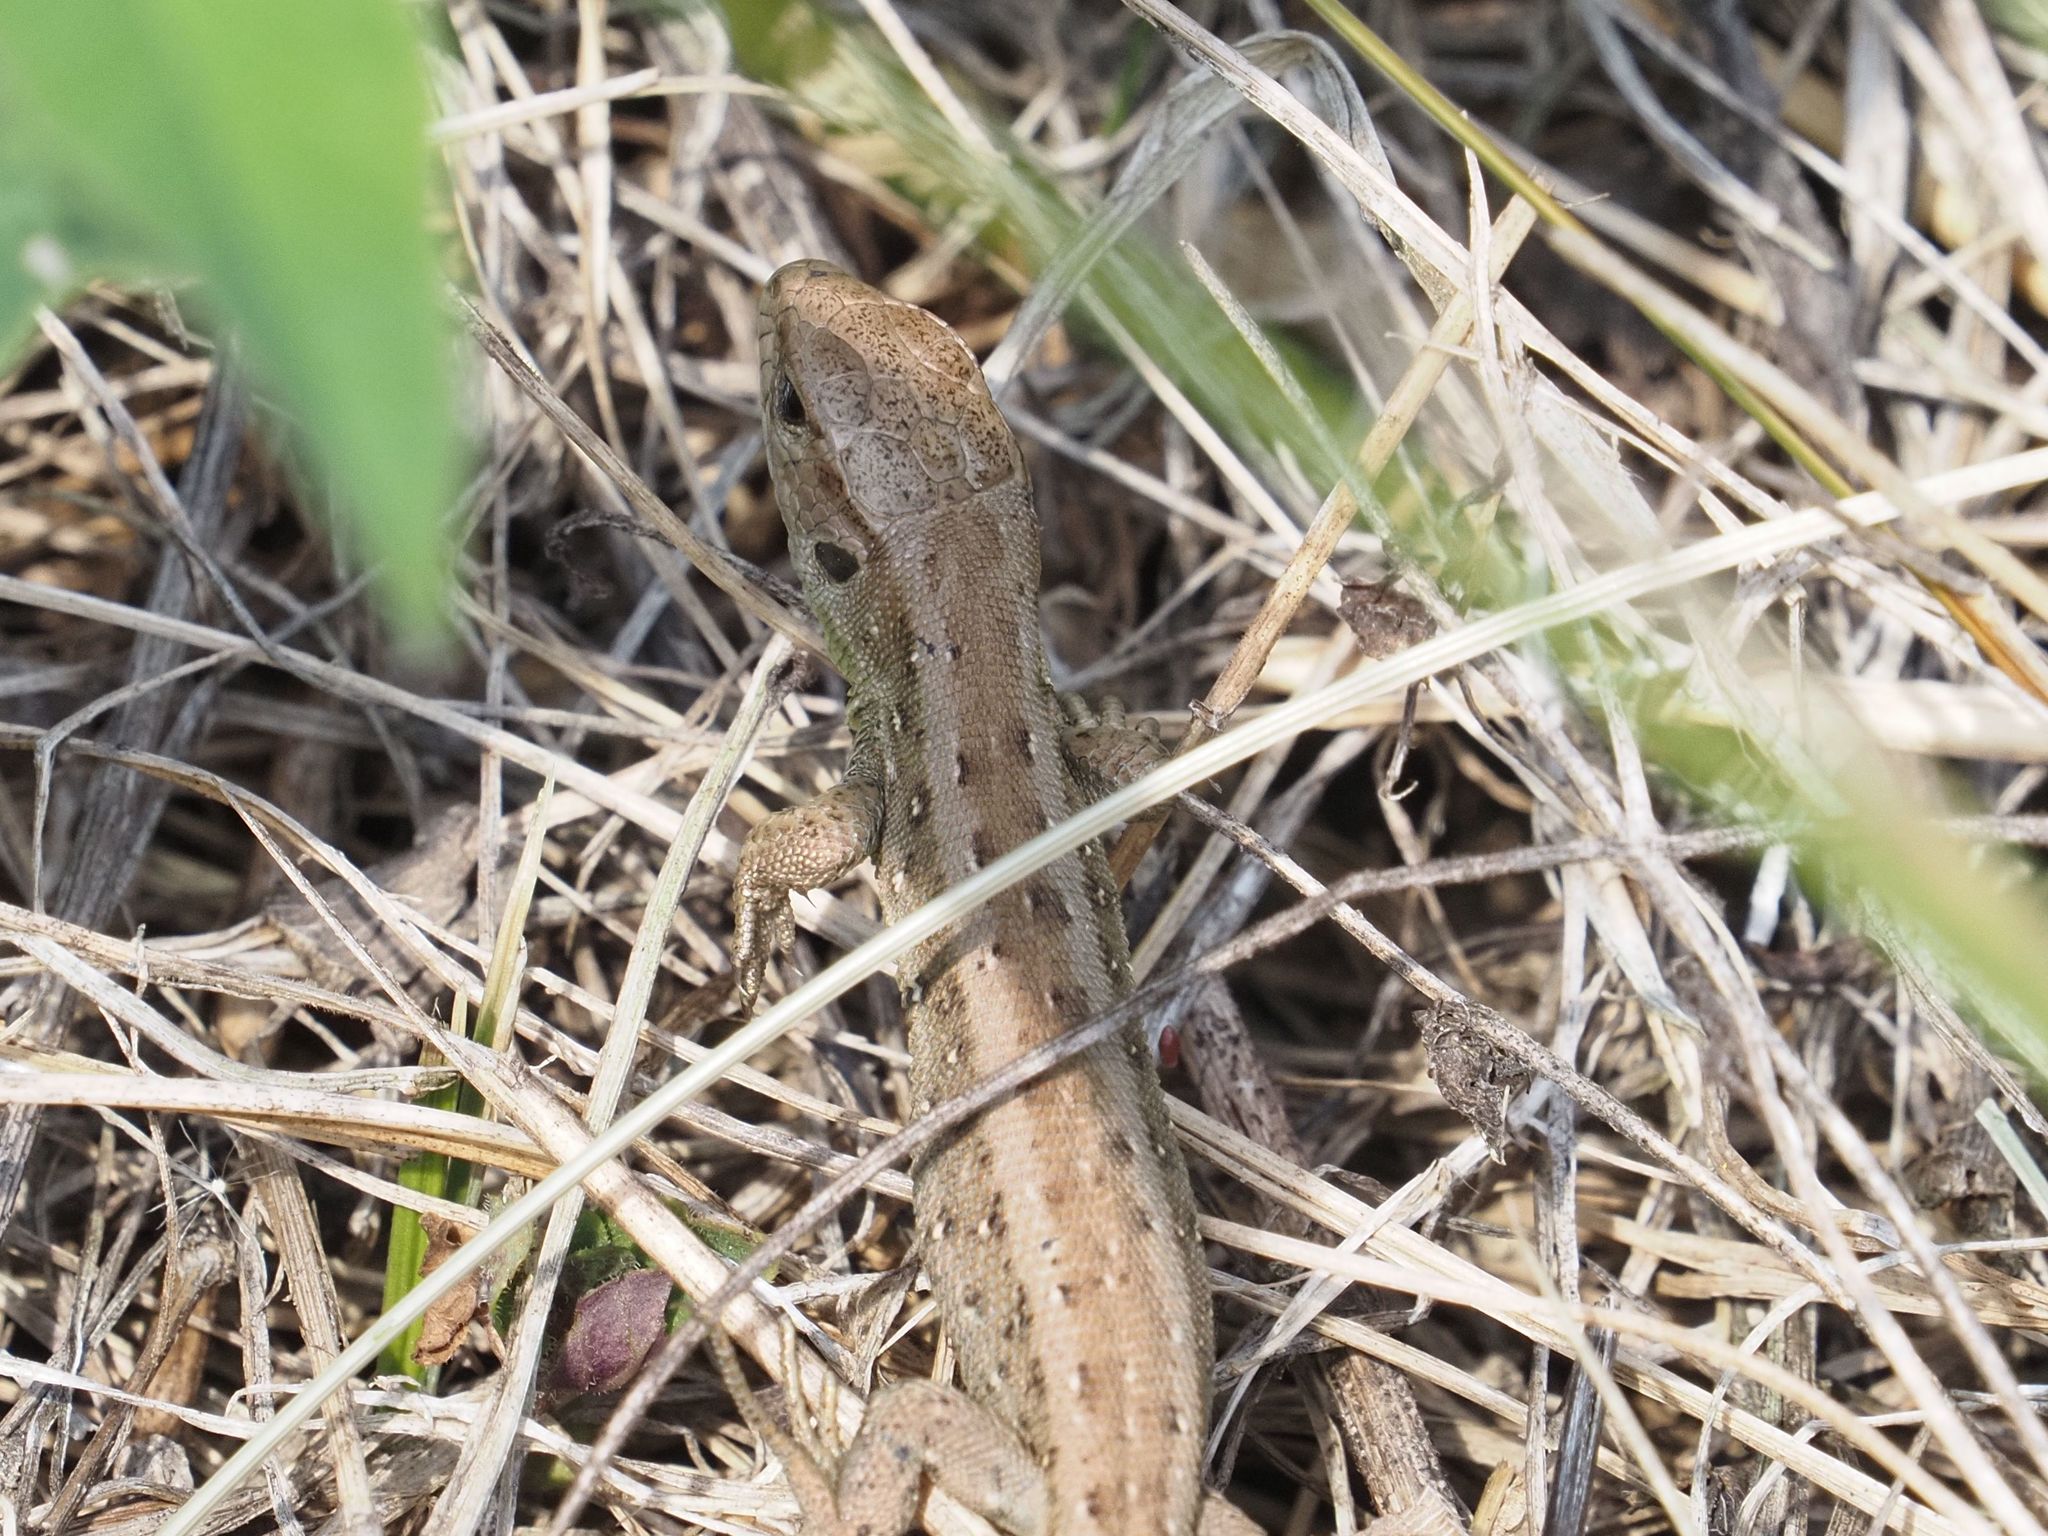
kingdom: Animalia
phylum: Chordata
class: Squamata
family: Lacertidae
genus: Lacerta
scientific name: Lacerta agilis
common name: Sand lizard
